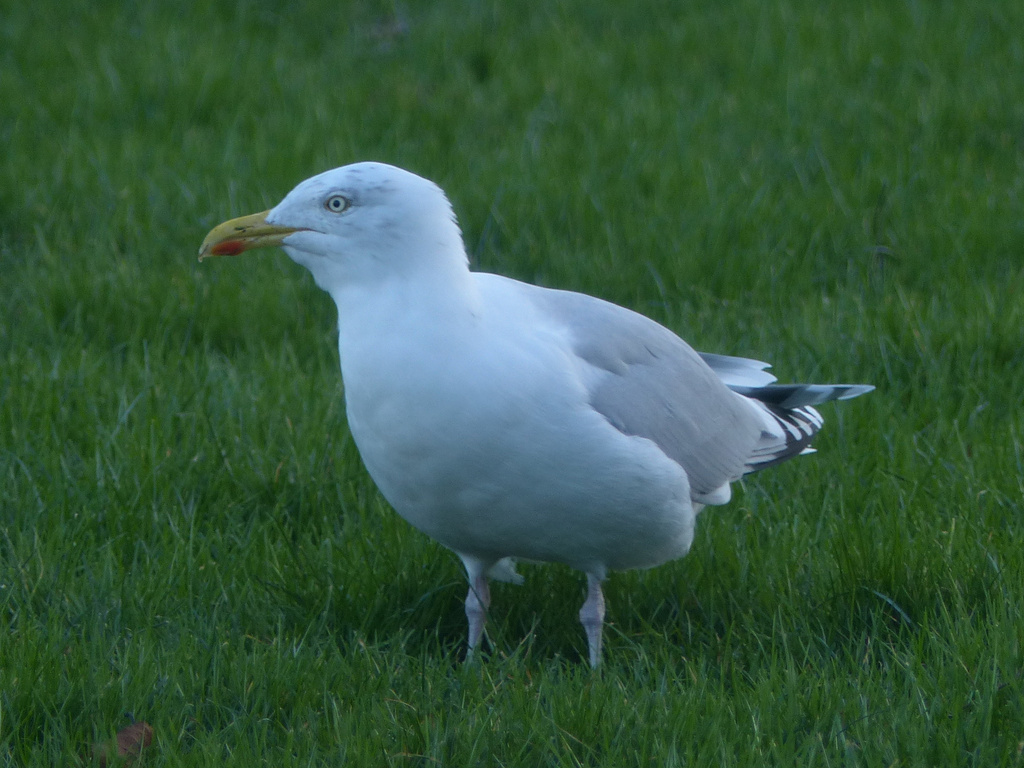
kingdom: Animalia
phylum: Chordata
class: Aves
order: Charadriiformes
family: Laridae
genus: Larus
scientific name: Larus argentatus
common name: Herring gull
